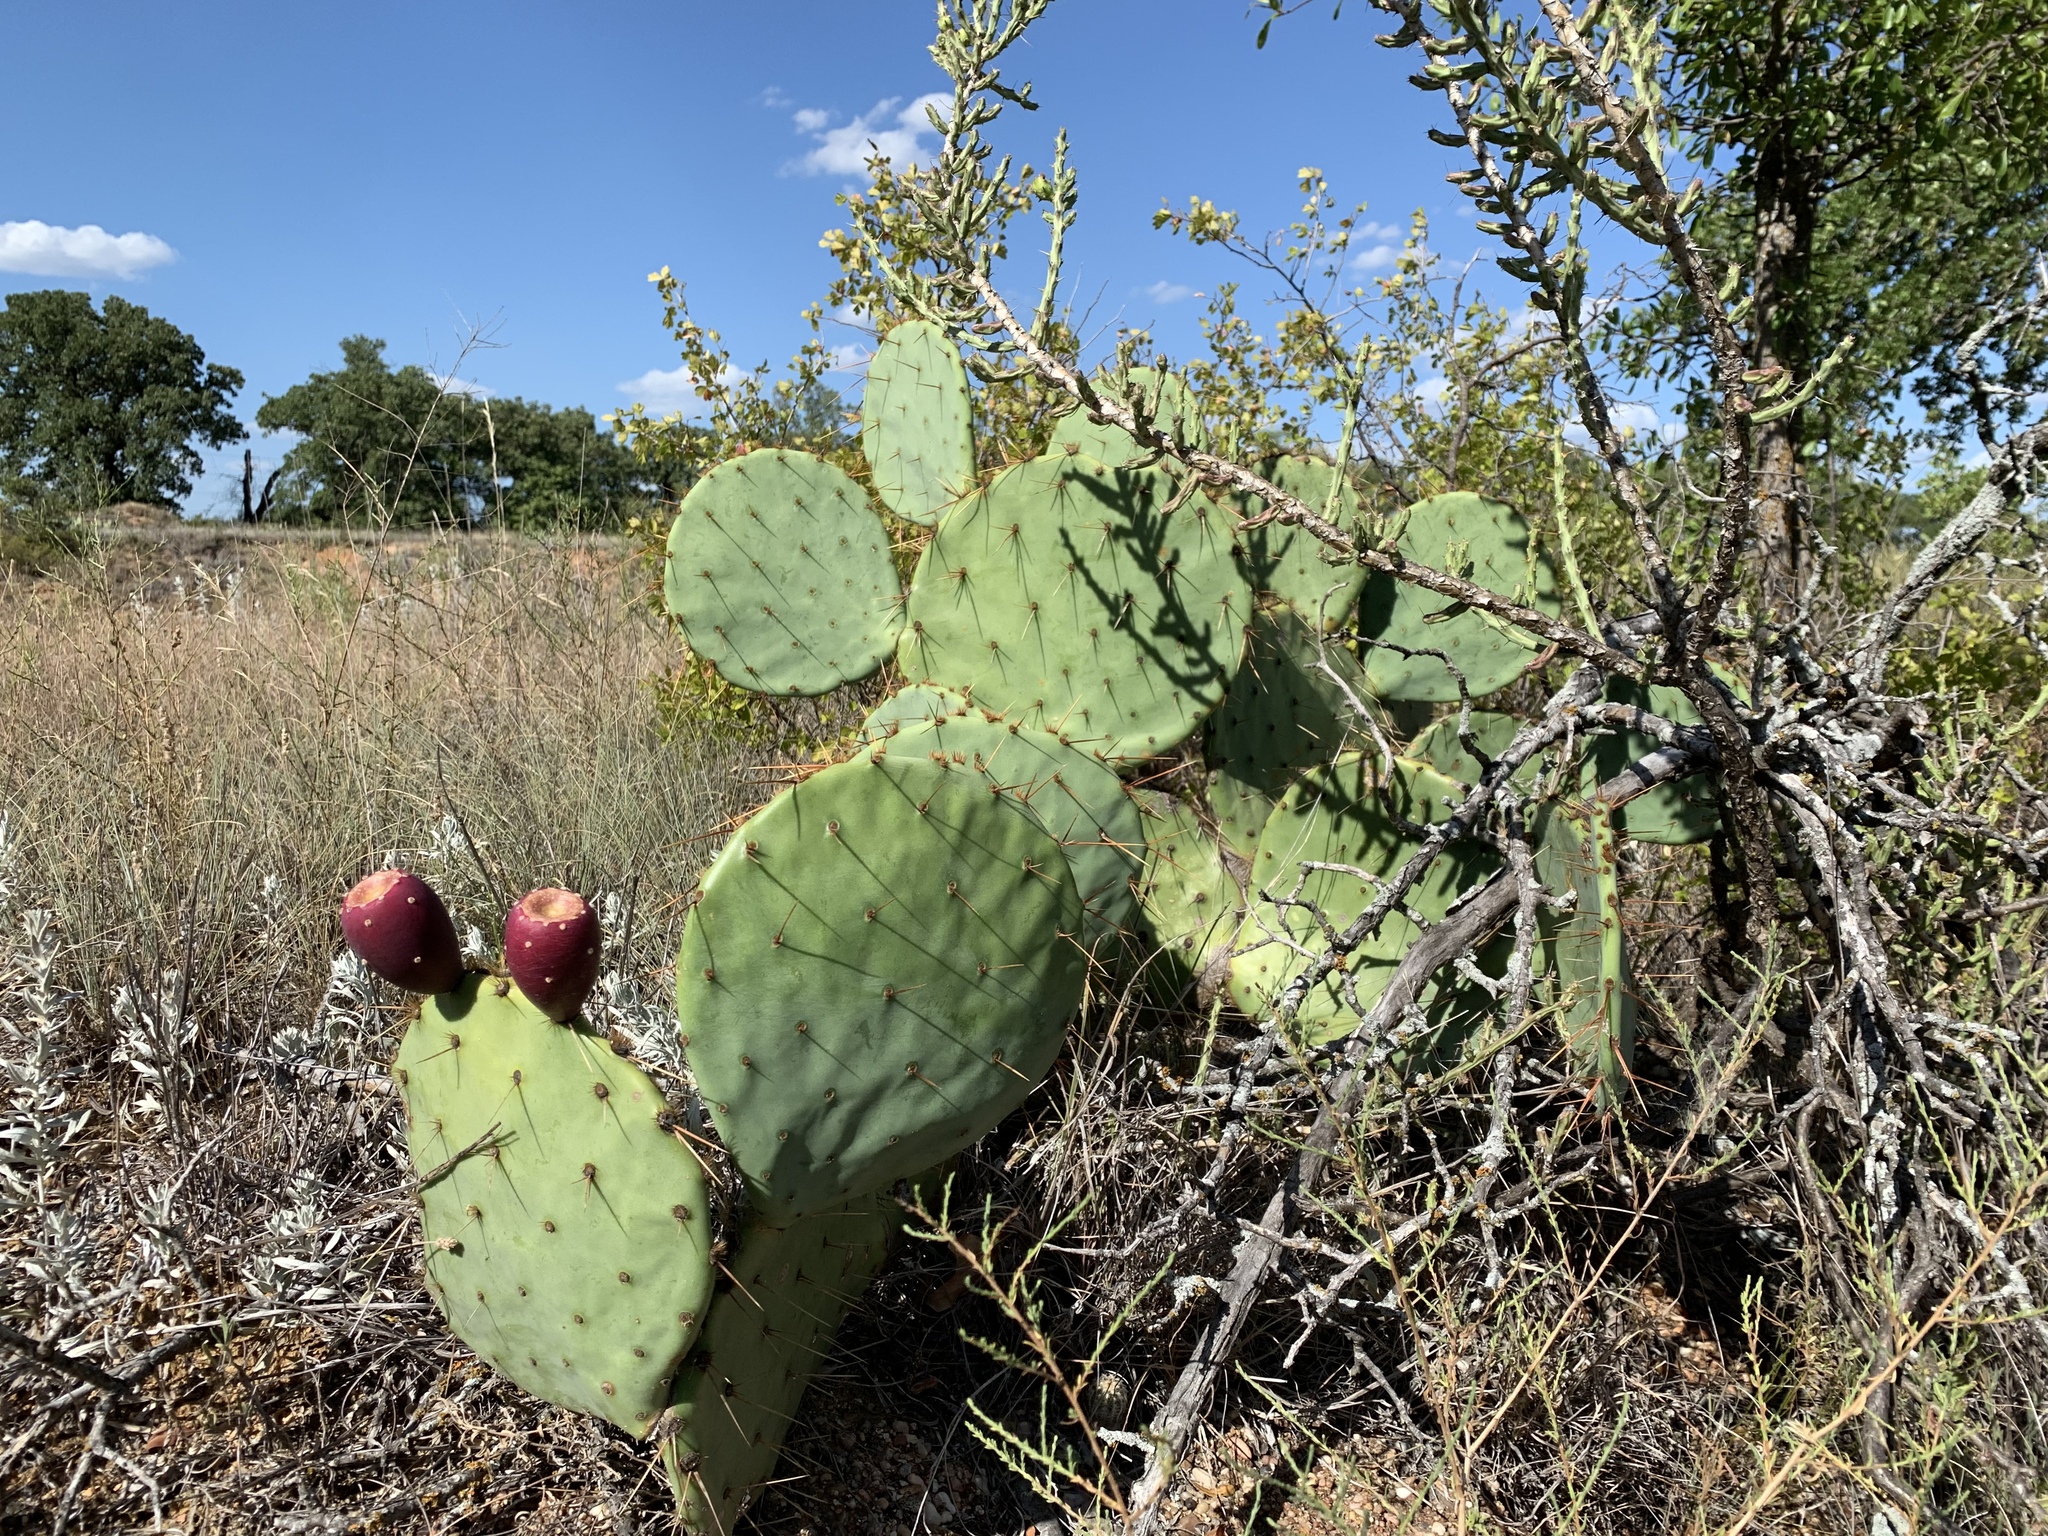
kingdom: Plantae
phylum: Tracheophyta
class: Magnoliopsida
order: Caryophyllales
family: Cactaceae
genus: Opuntia
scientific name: Opuntia engelmannii
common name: Cactus-apple
